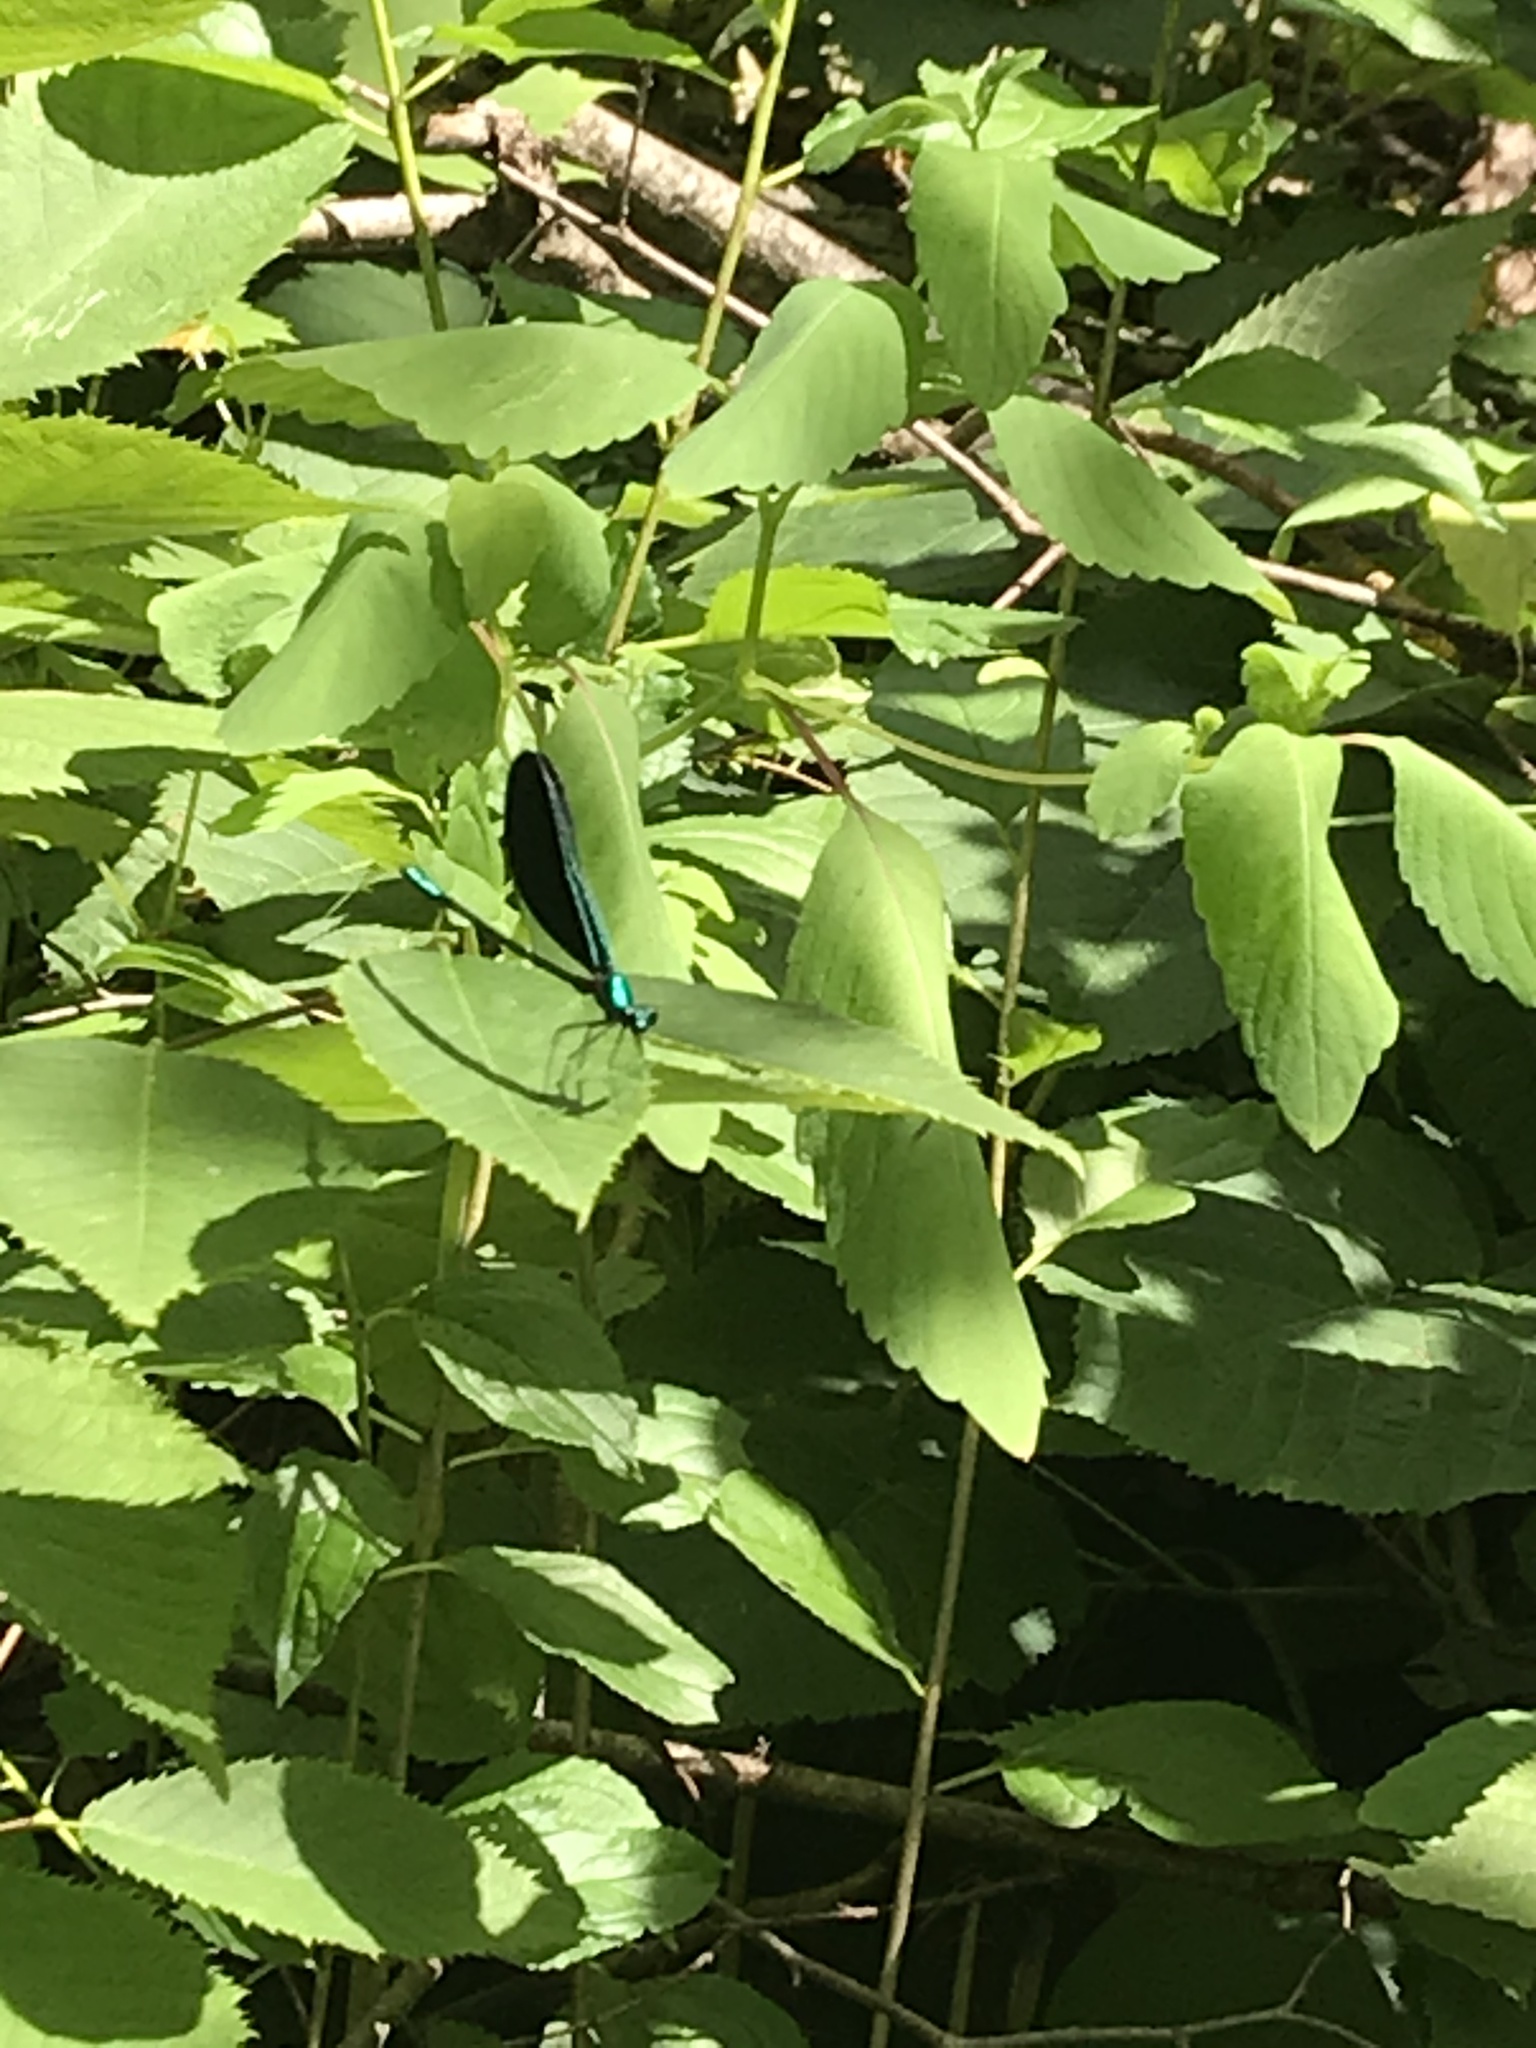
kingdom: Animalia
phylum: Arthropoda
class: Insecta
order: Odonata
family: Calopterygidae
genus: Calopteryx
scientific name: Calopteryx maculata
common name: Ebony jewelwing
